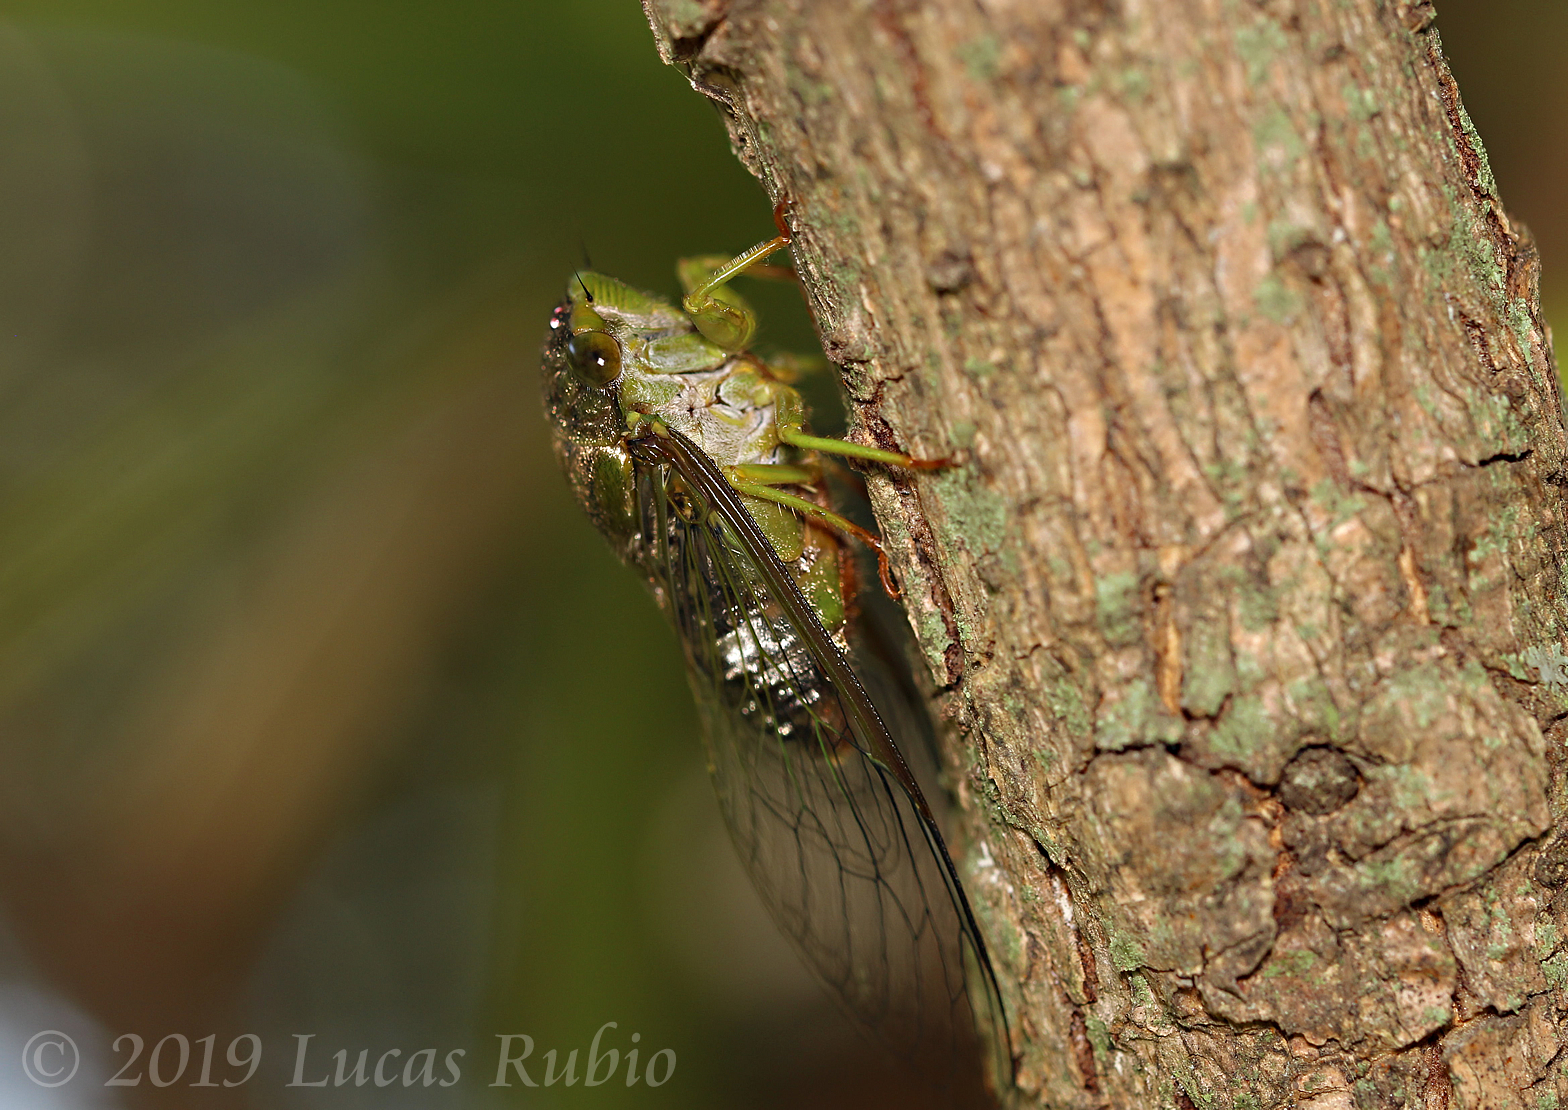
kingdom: Animalia
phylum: Arthropoda
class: Insecta
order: Hemiptera
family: Cicadidae
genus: Acanthoventris
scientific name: Acanthoventris drewseni
